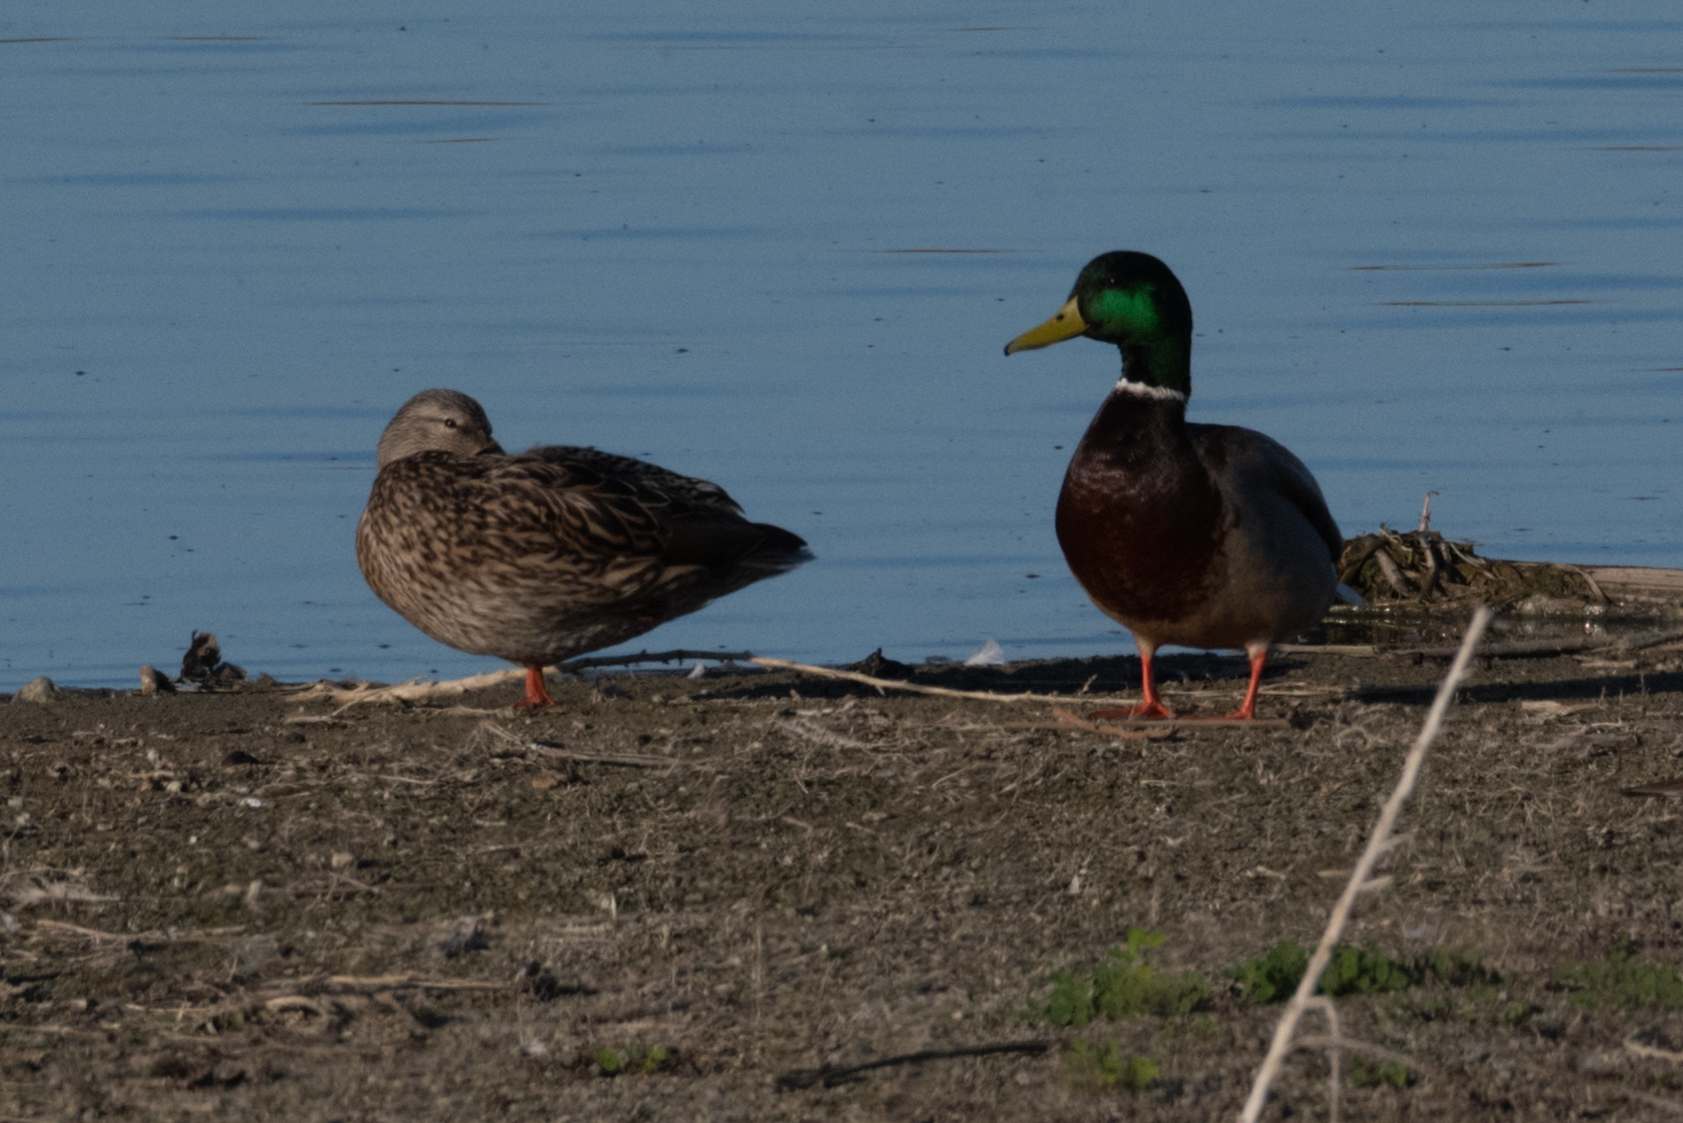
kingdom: Animalia
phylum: Chordata
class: Aves
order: Anseriformes
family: Anatidae
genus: Anas
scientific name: Anas platyrhynchos
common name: Mallard
